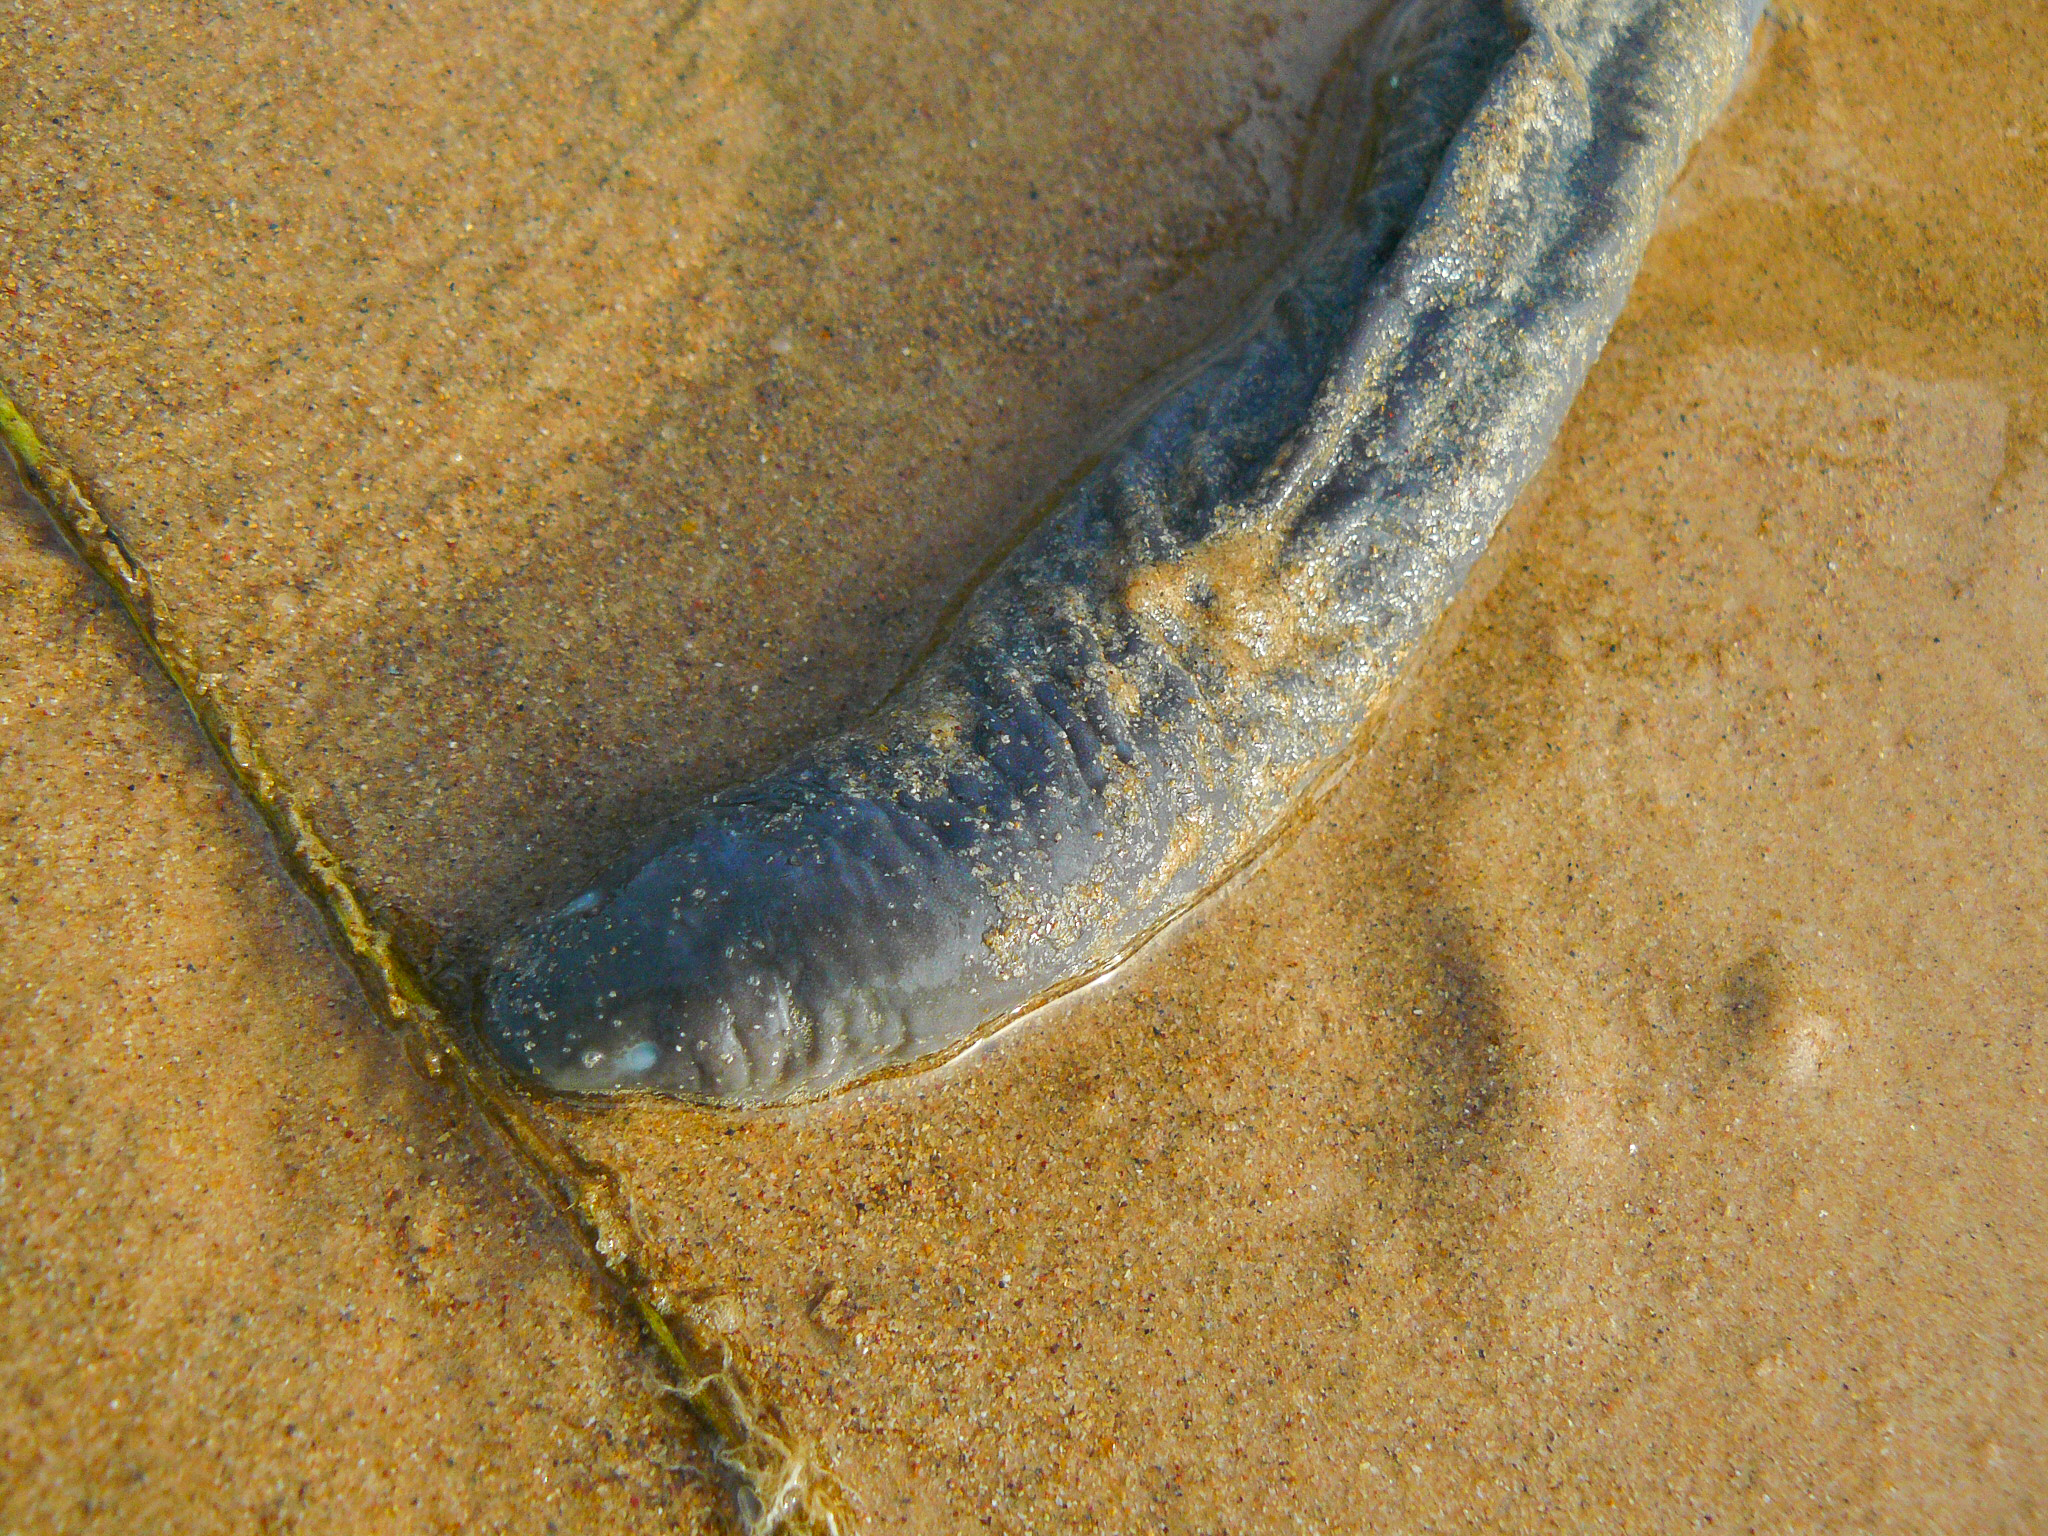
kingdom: Animalia
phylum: Chordata
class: Amphibia
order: Gymnophiona
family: Typhlonectidae
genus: Typhlonectes
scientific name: Typhlonectes compressicauda
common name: Cayenne caecilian
